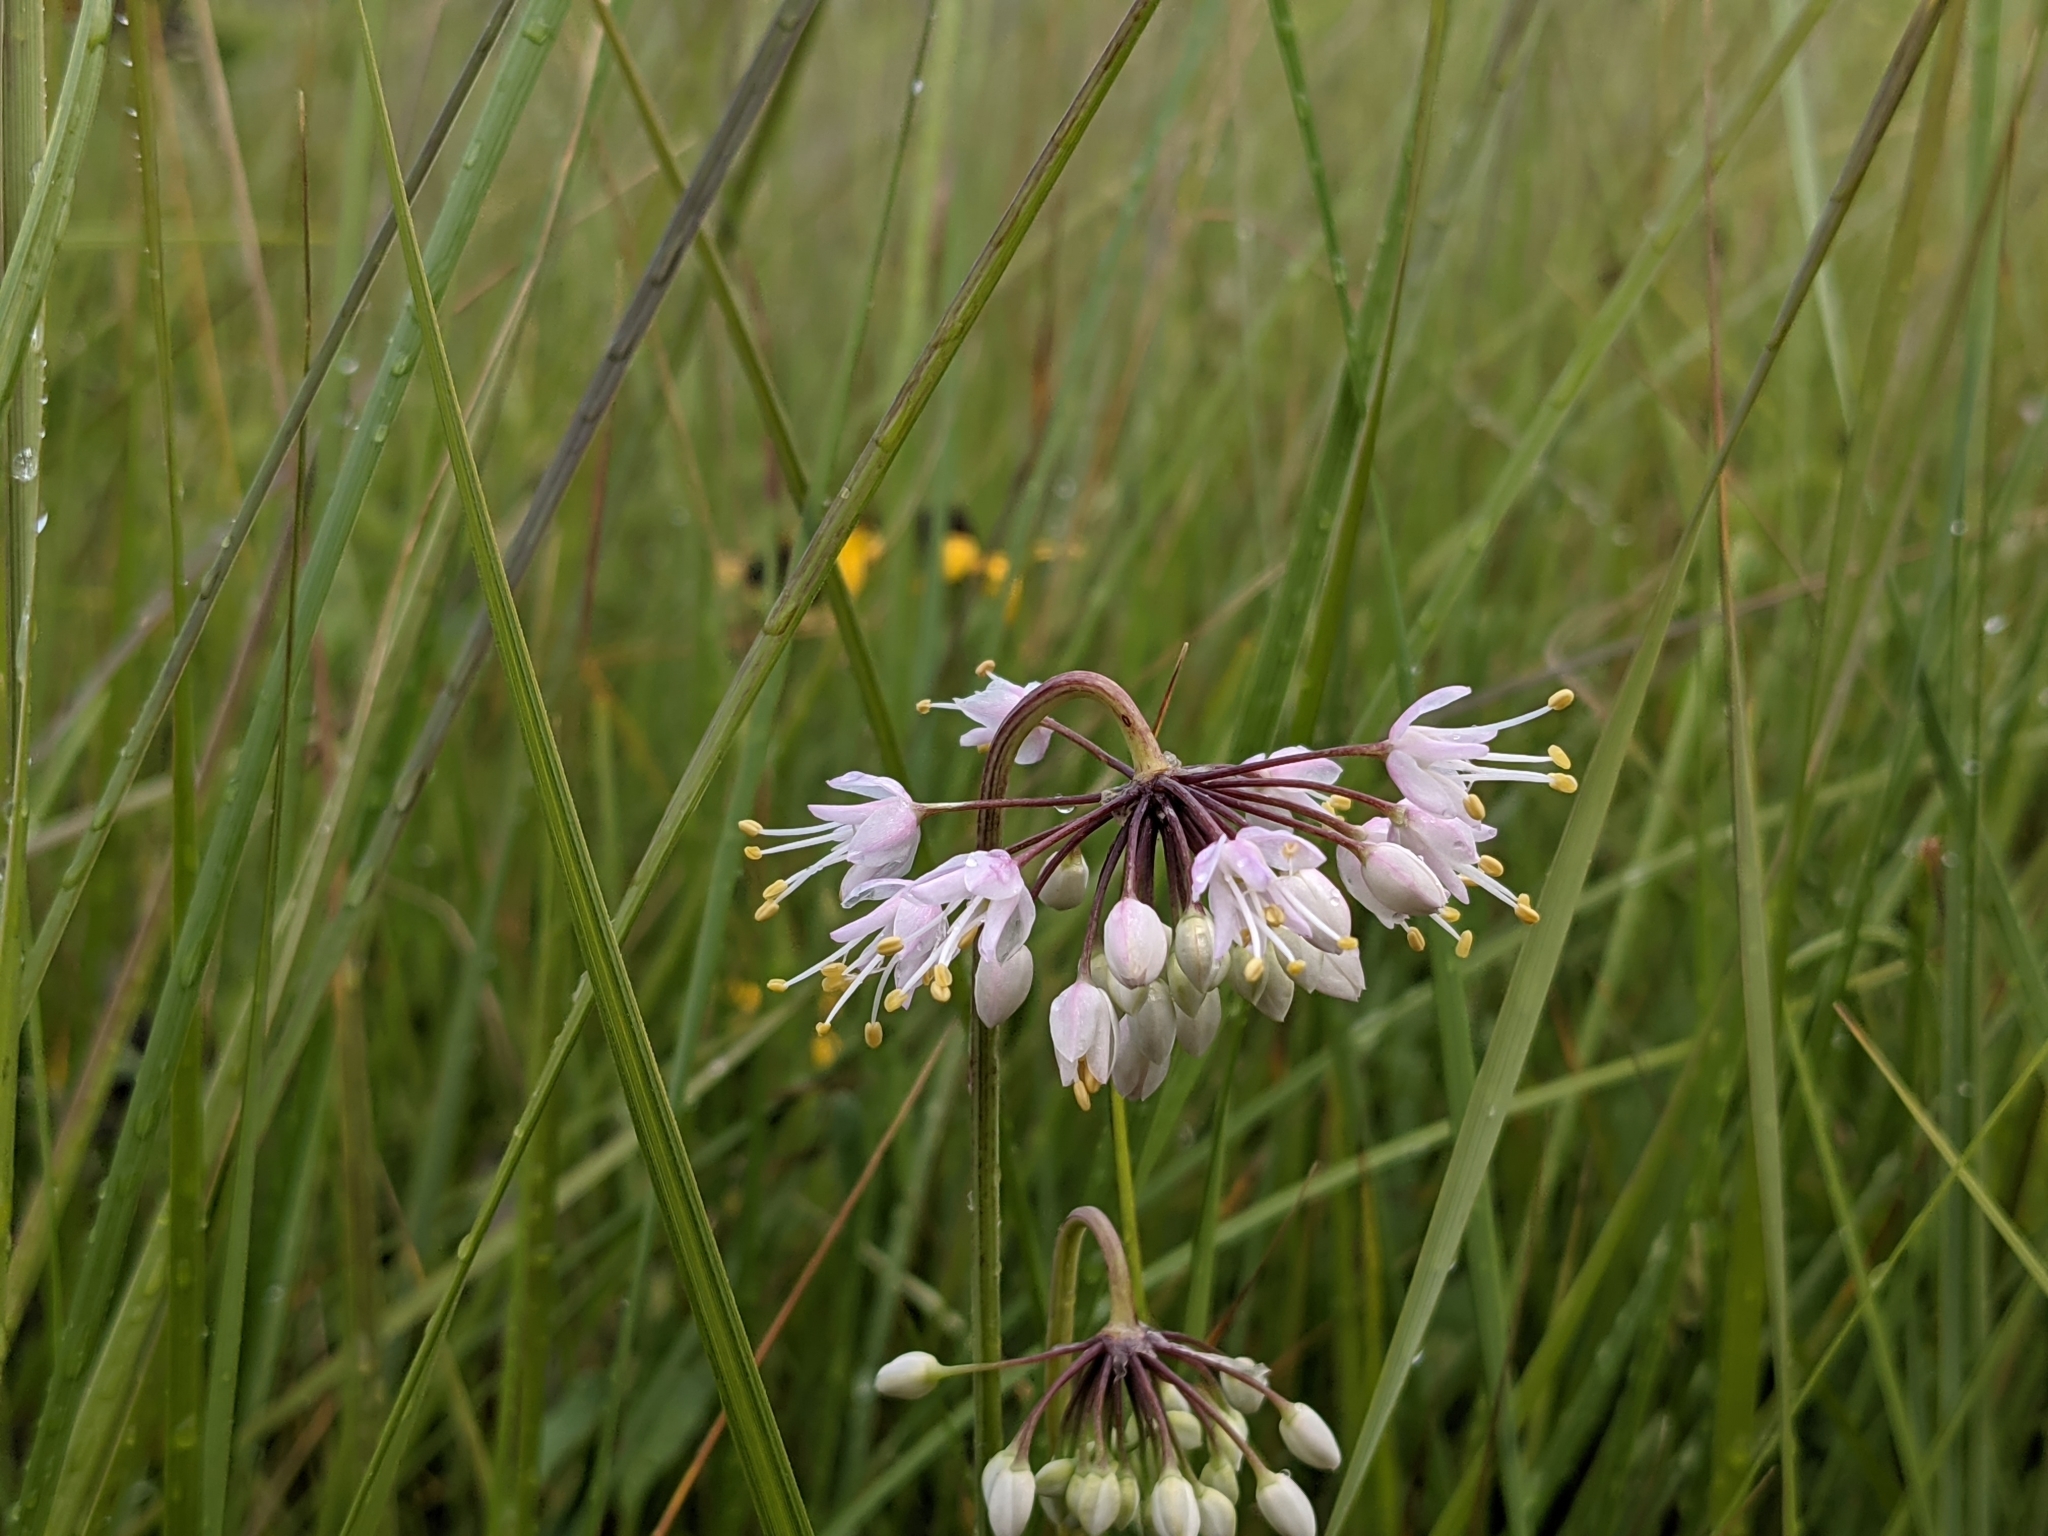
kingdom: Plantae
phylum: Tracheophyta
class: Liliopsida
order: Asparagales
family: Amaryllidaceae
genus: Allium
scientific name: Allium cernuum
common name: Nodding onion
